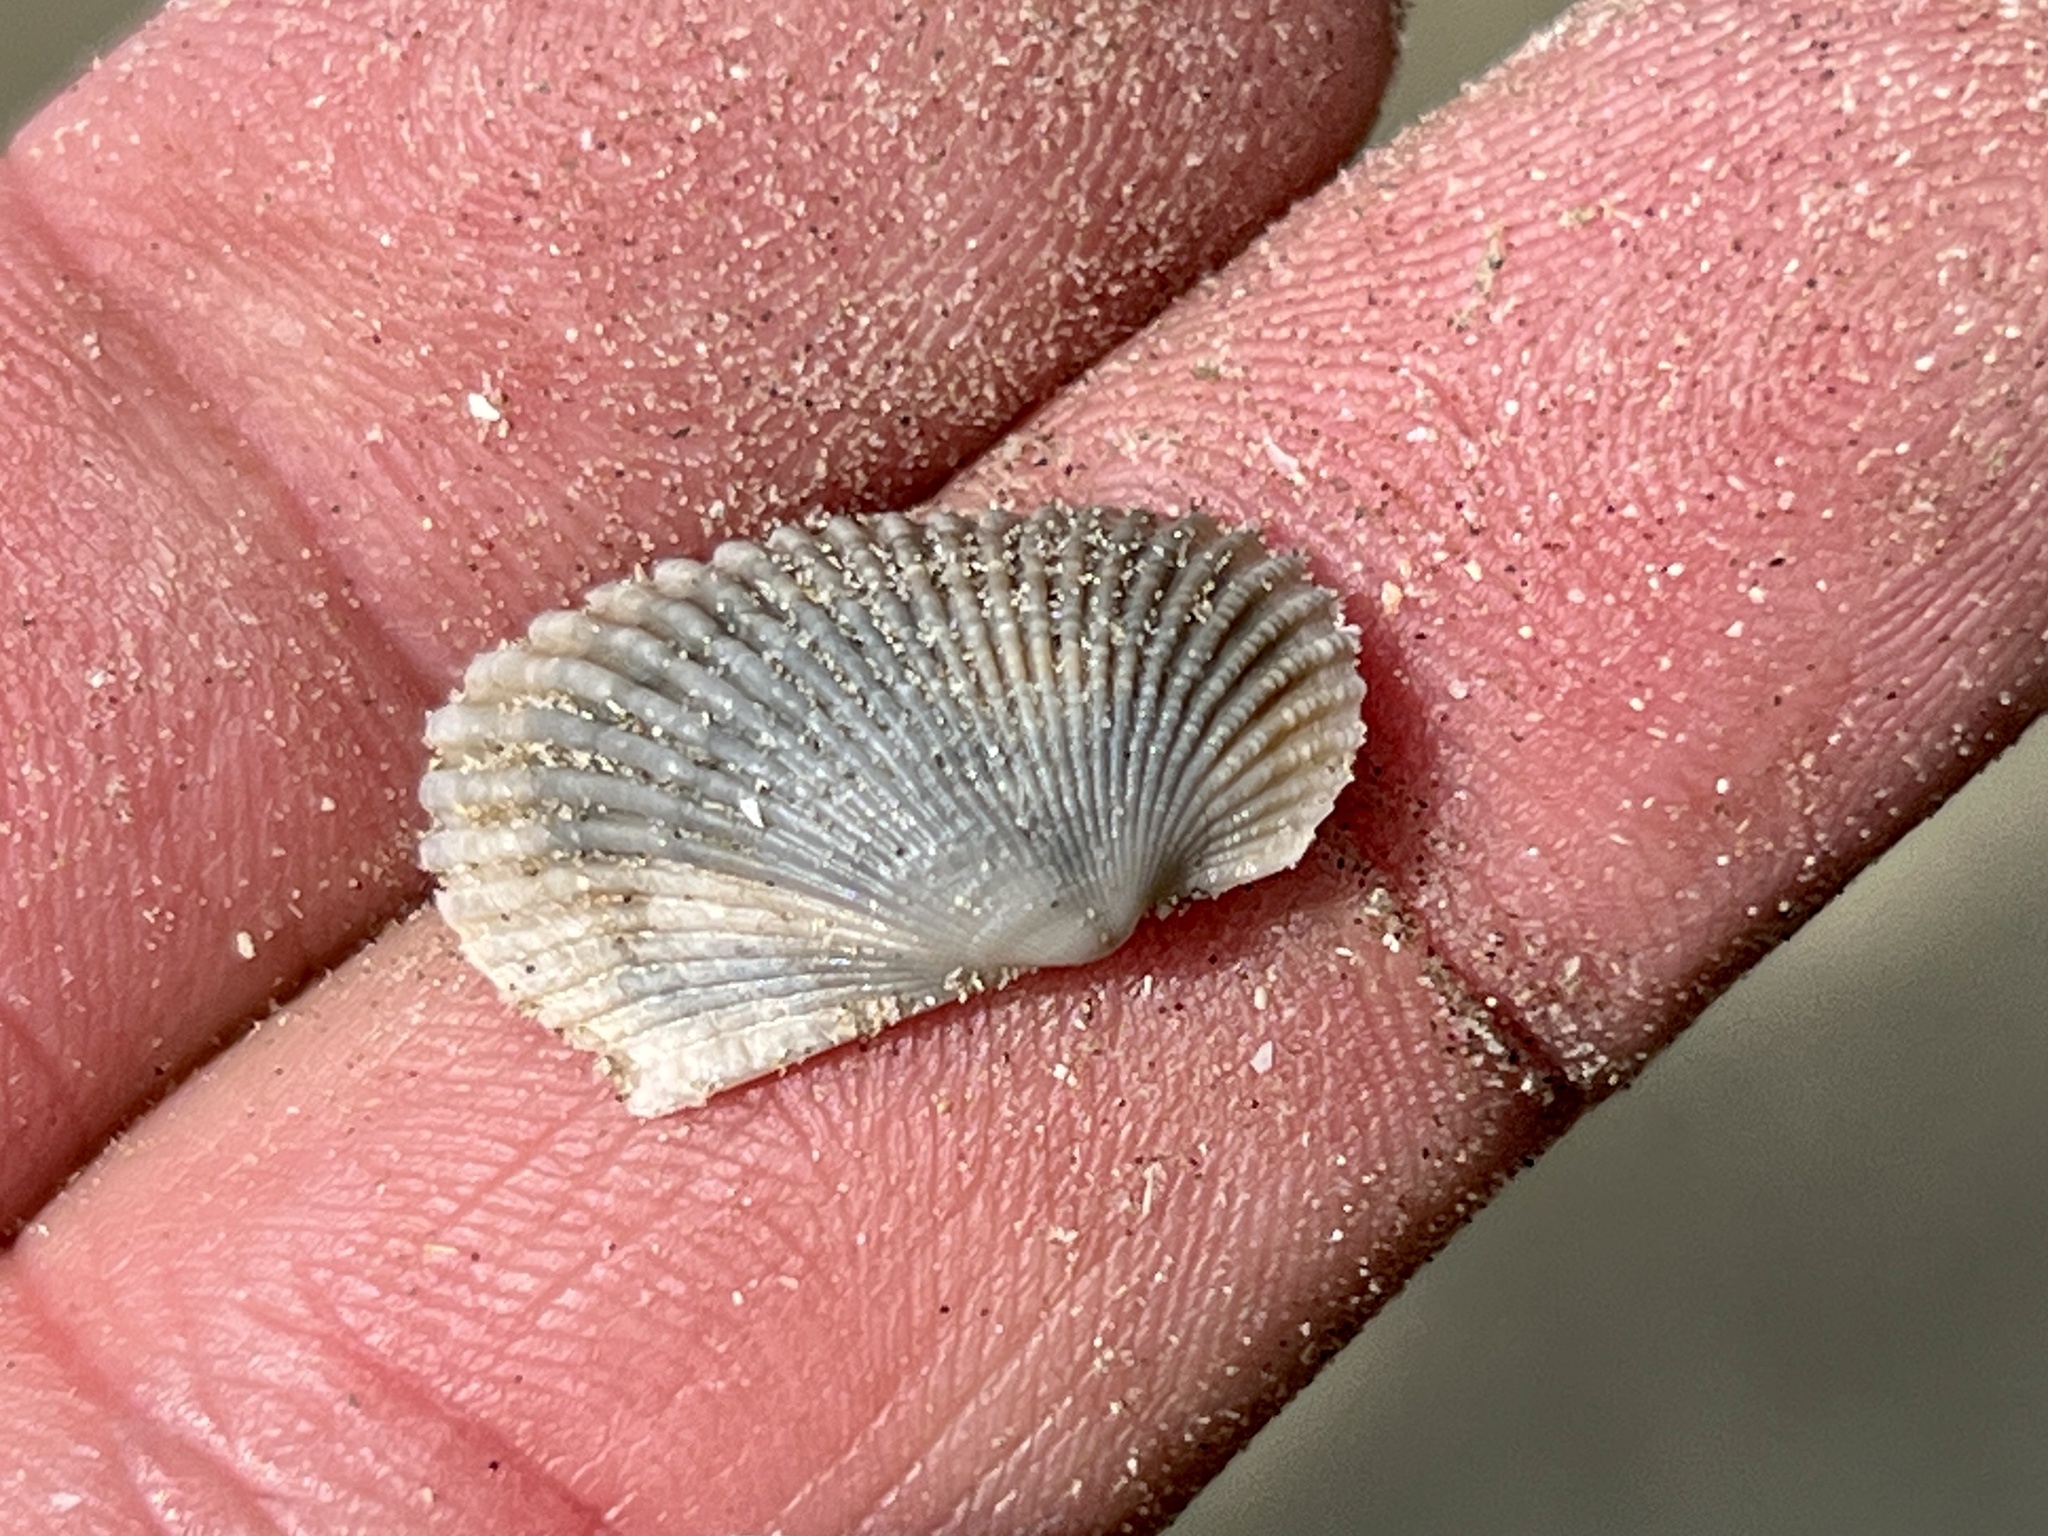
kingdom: Animalia
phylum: Mollusca
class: Bivalvia
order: Arcida
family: Arcidae
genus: Anadara
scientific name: Anadara transversa
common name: Transverse ark
